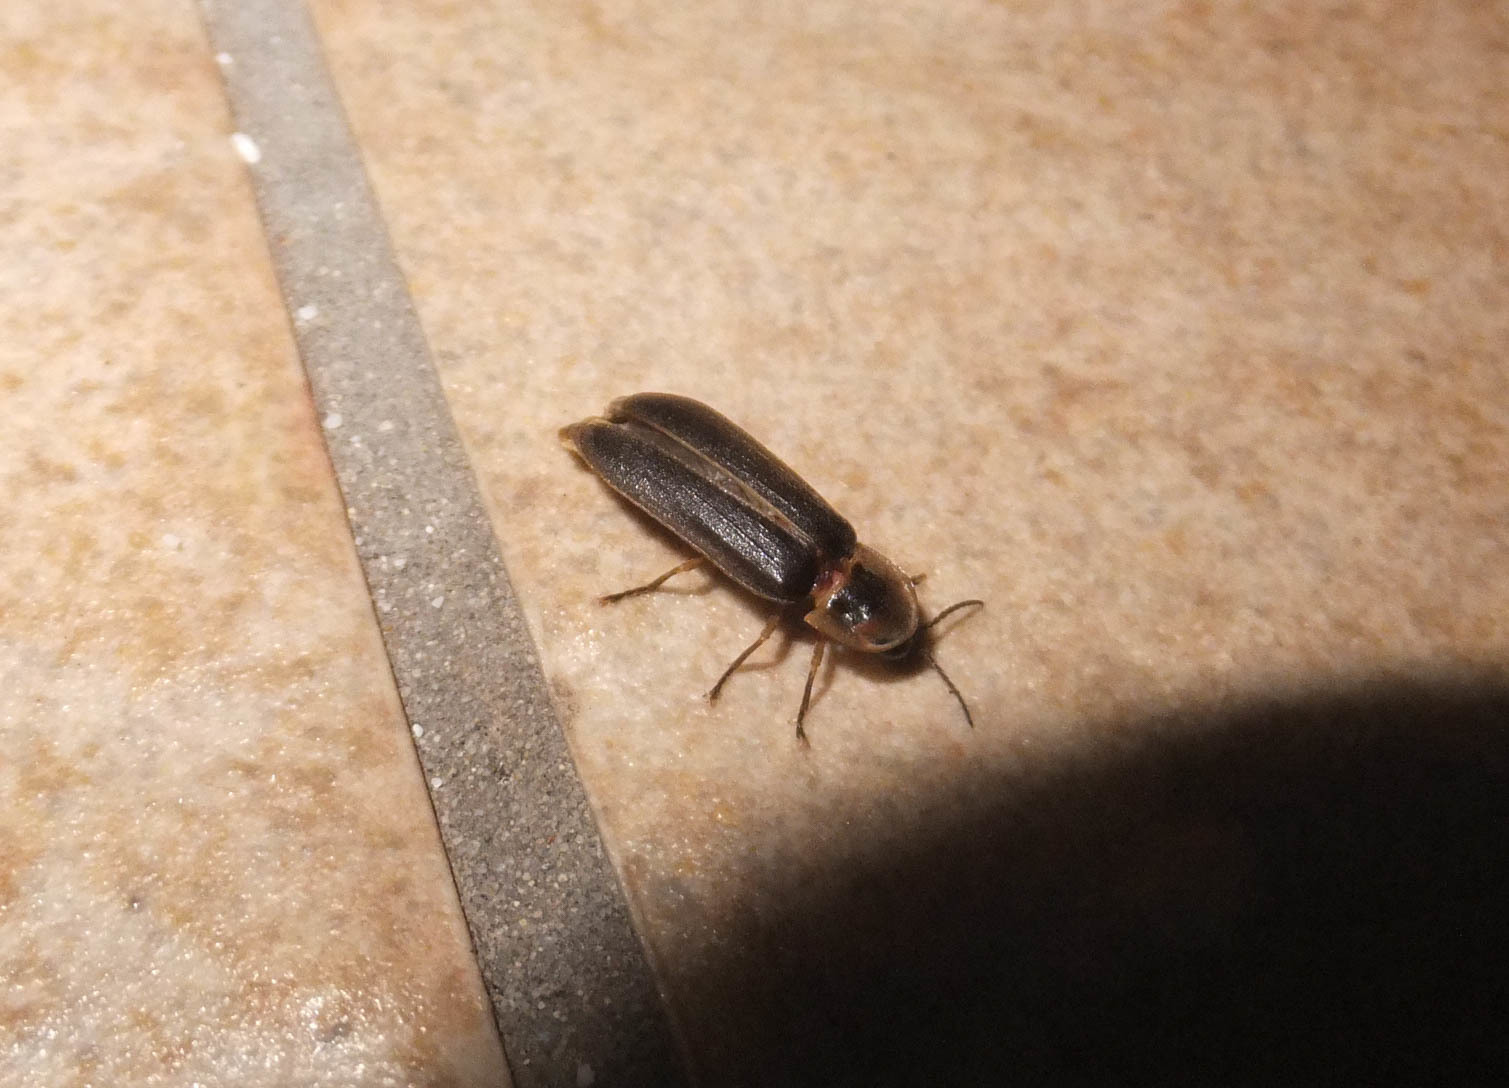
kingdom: Animalia
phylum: Arthropoda
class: Insecta
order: Coleoptera
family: Lampyridae
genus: Lampyris
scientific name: Lampyris fuscata
